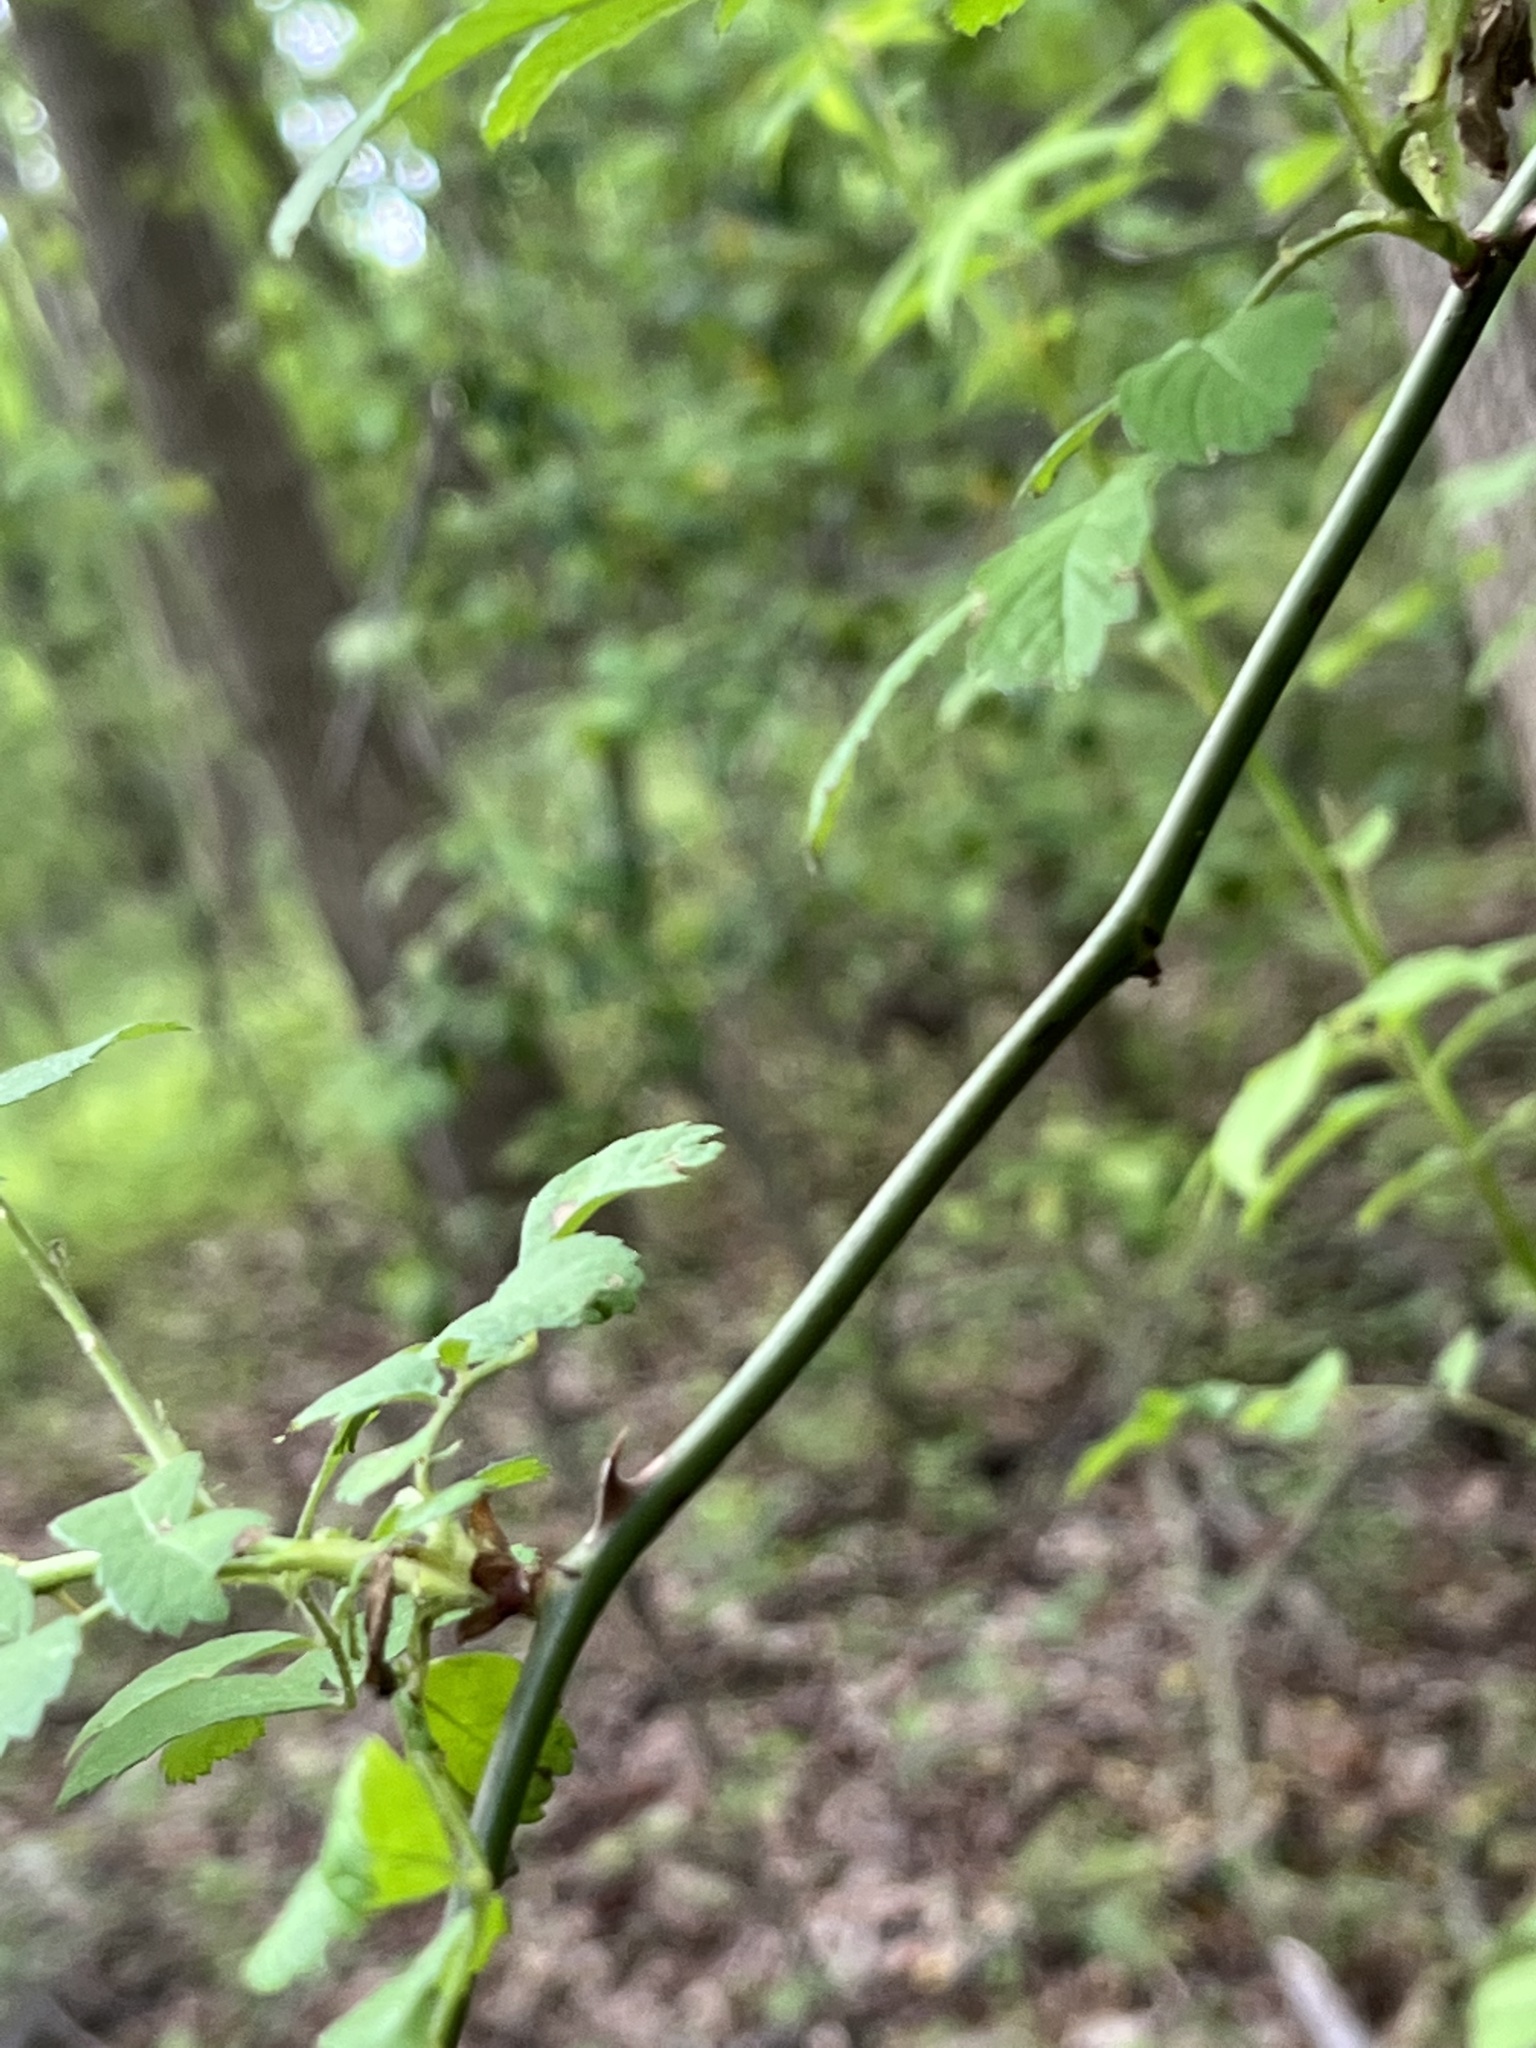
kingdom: Plantae
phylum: Tracheophyta
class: Magnoliopsida
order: Rosales
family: Rosaceae
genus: Rosa
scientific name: Rosa multiflora
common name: Multiflora rose
